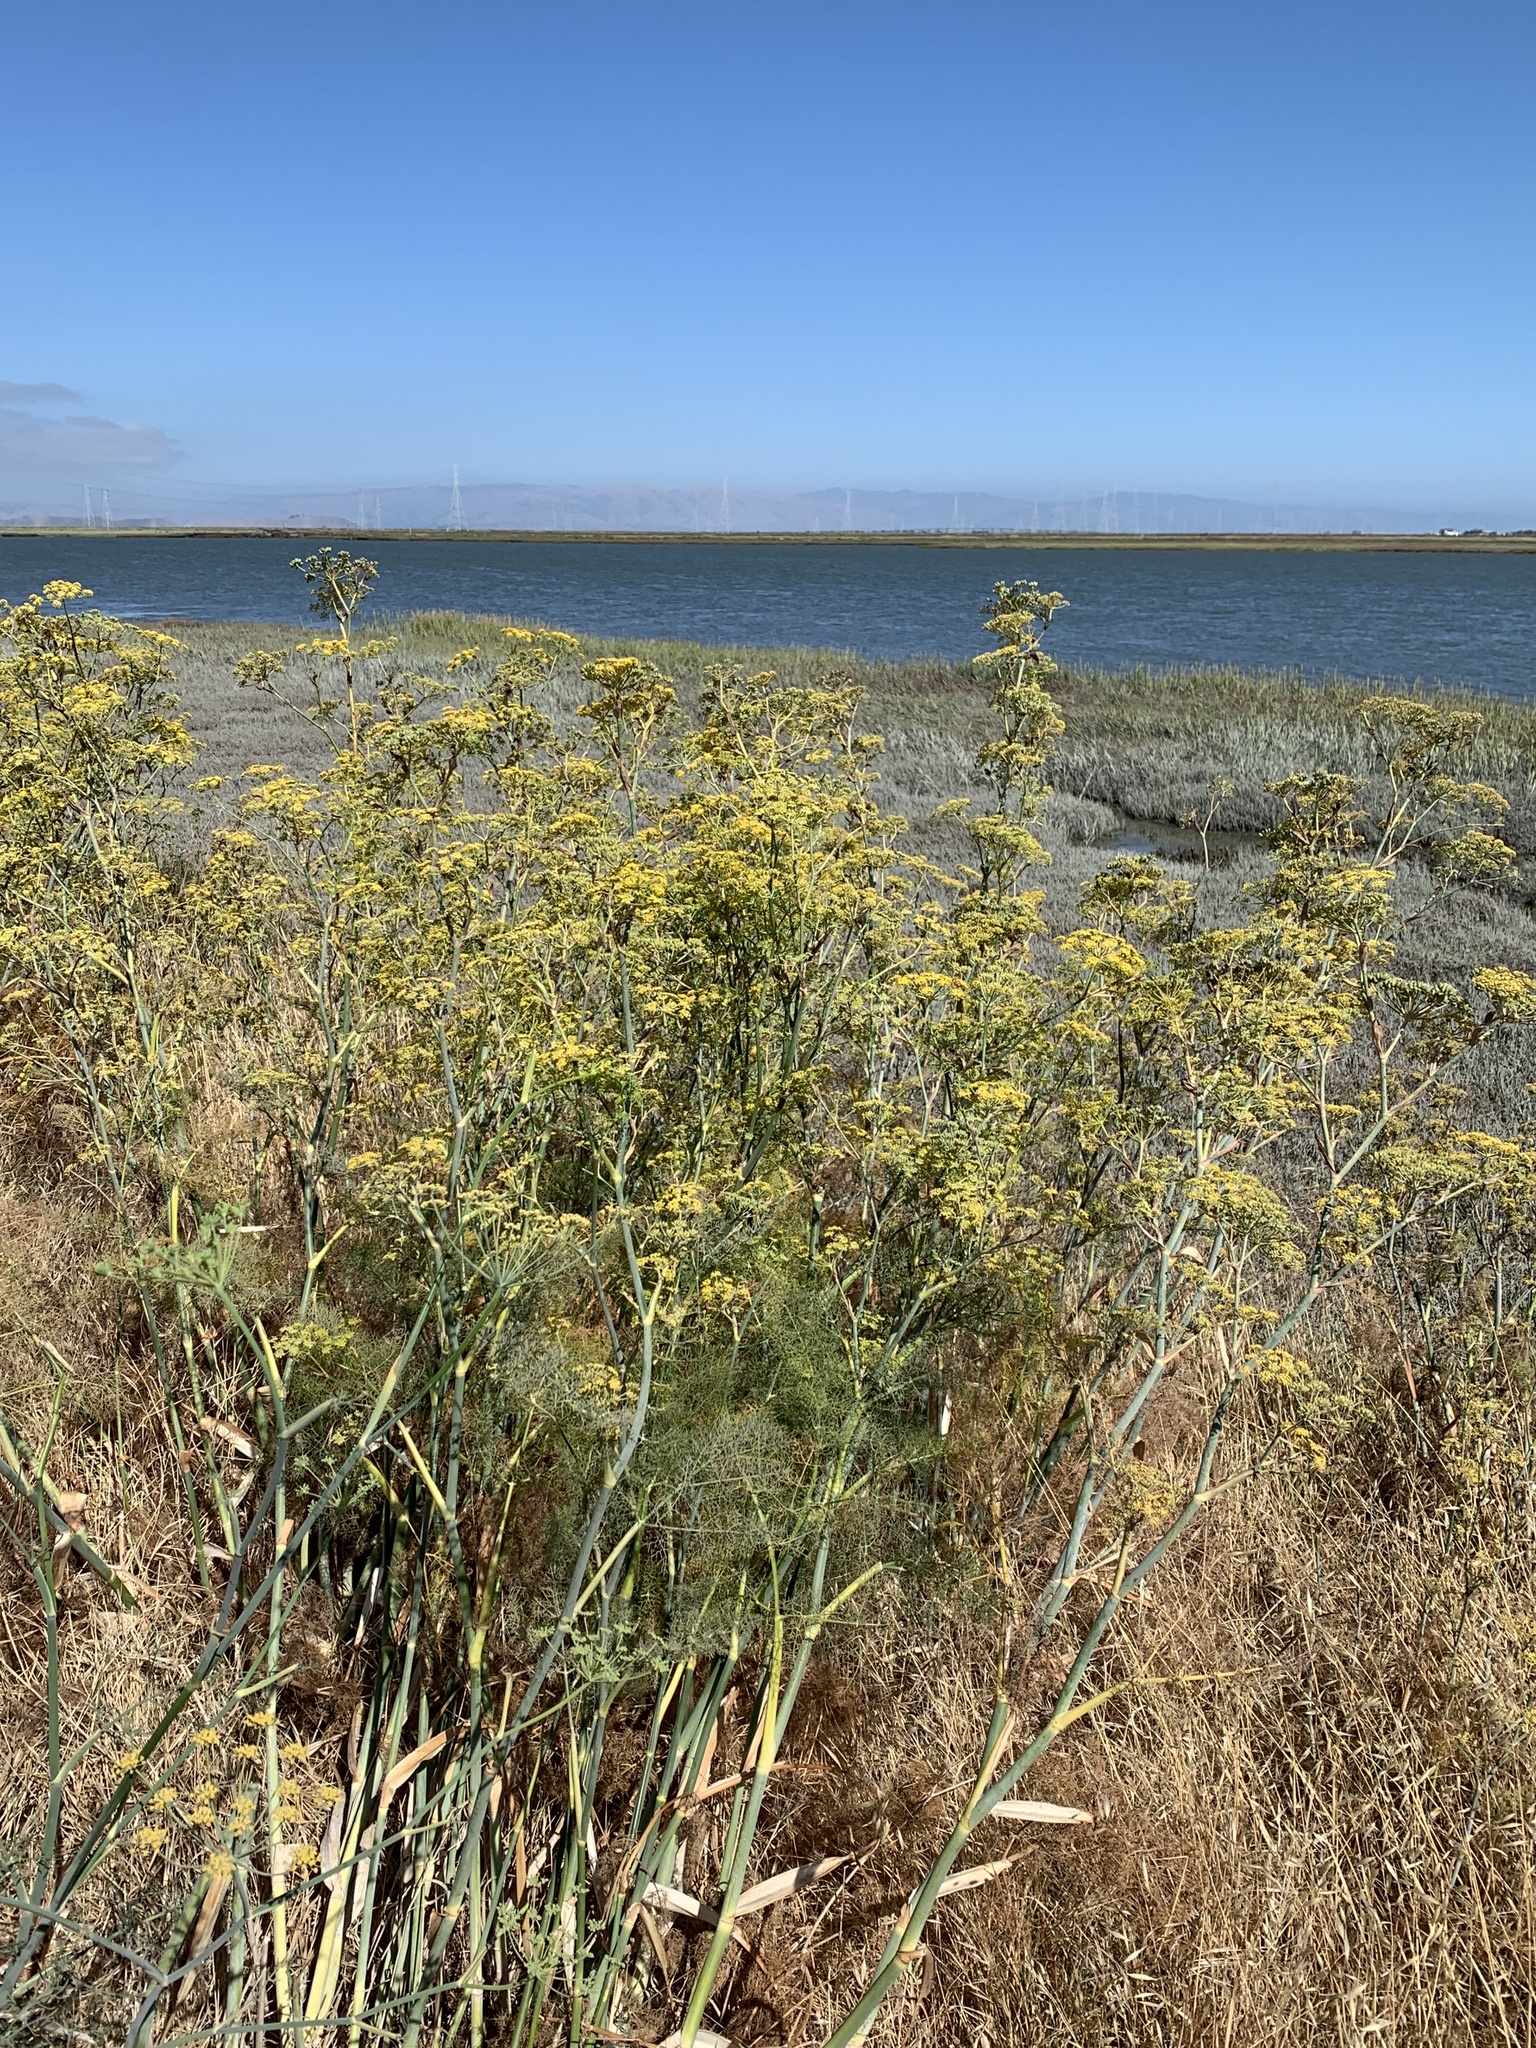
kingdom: Plantae
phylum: Tracheophyta
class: Magnoliopsida
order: Apiales
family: Apiaceae
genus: Foeniculum
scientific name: Foeniculum vulgare
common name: Fennel
